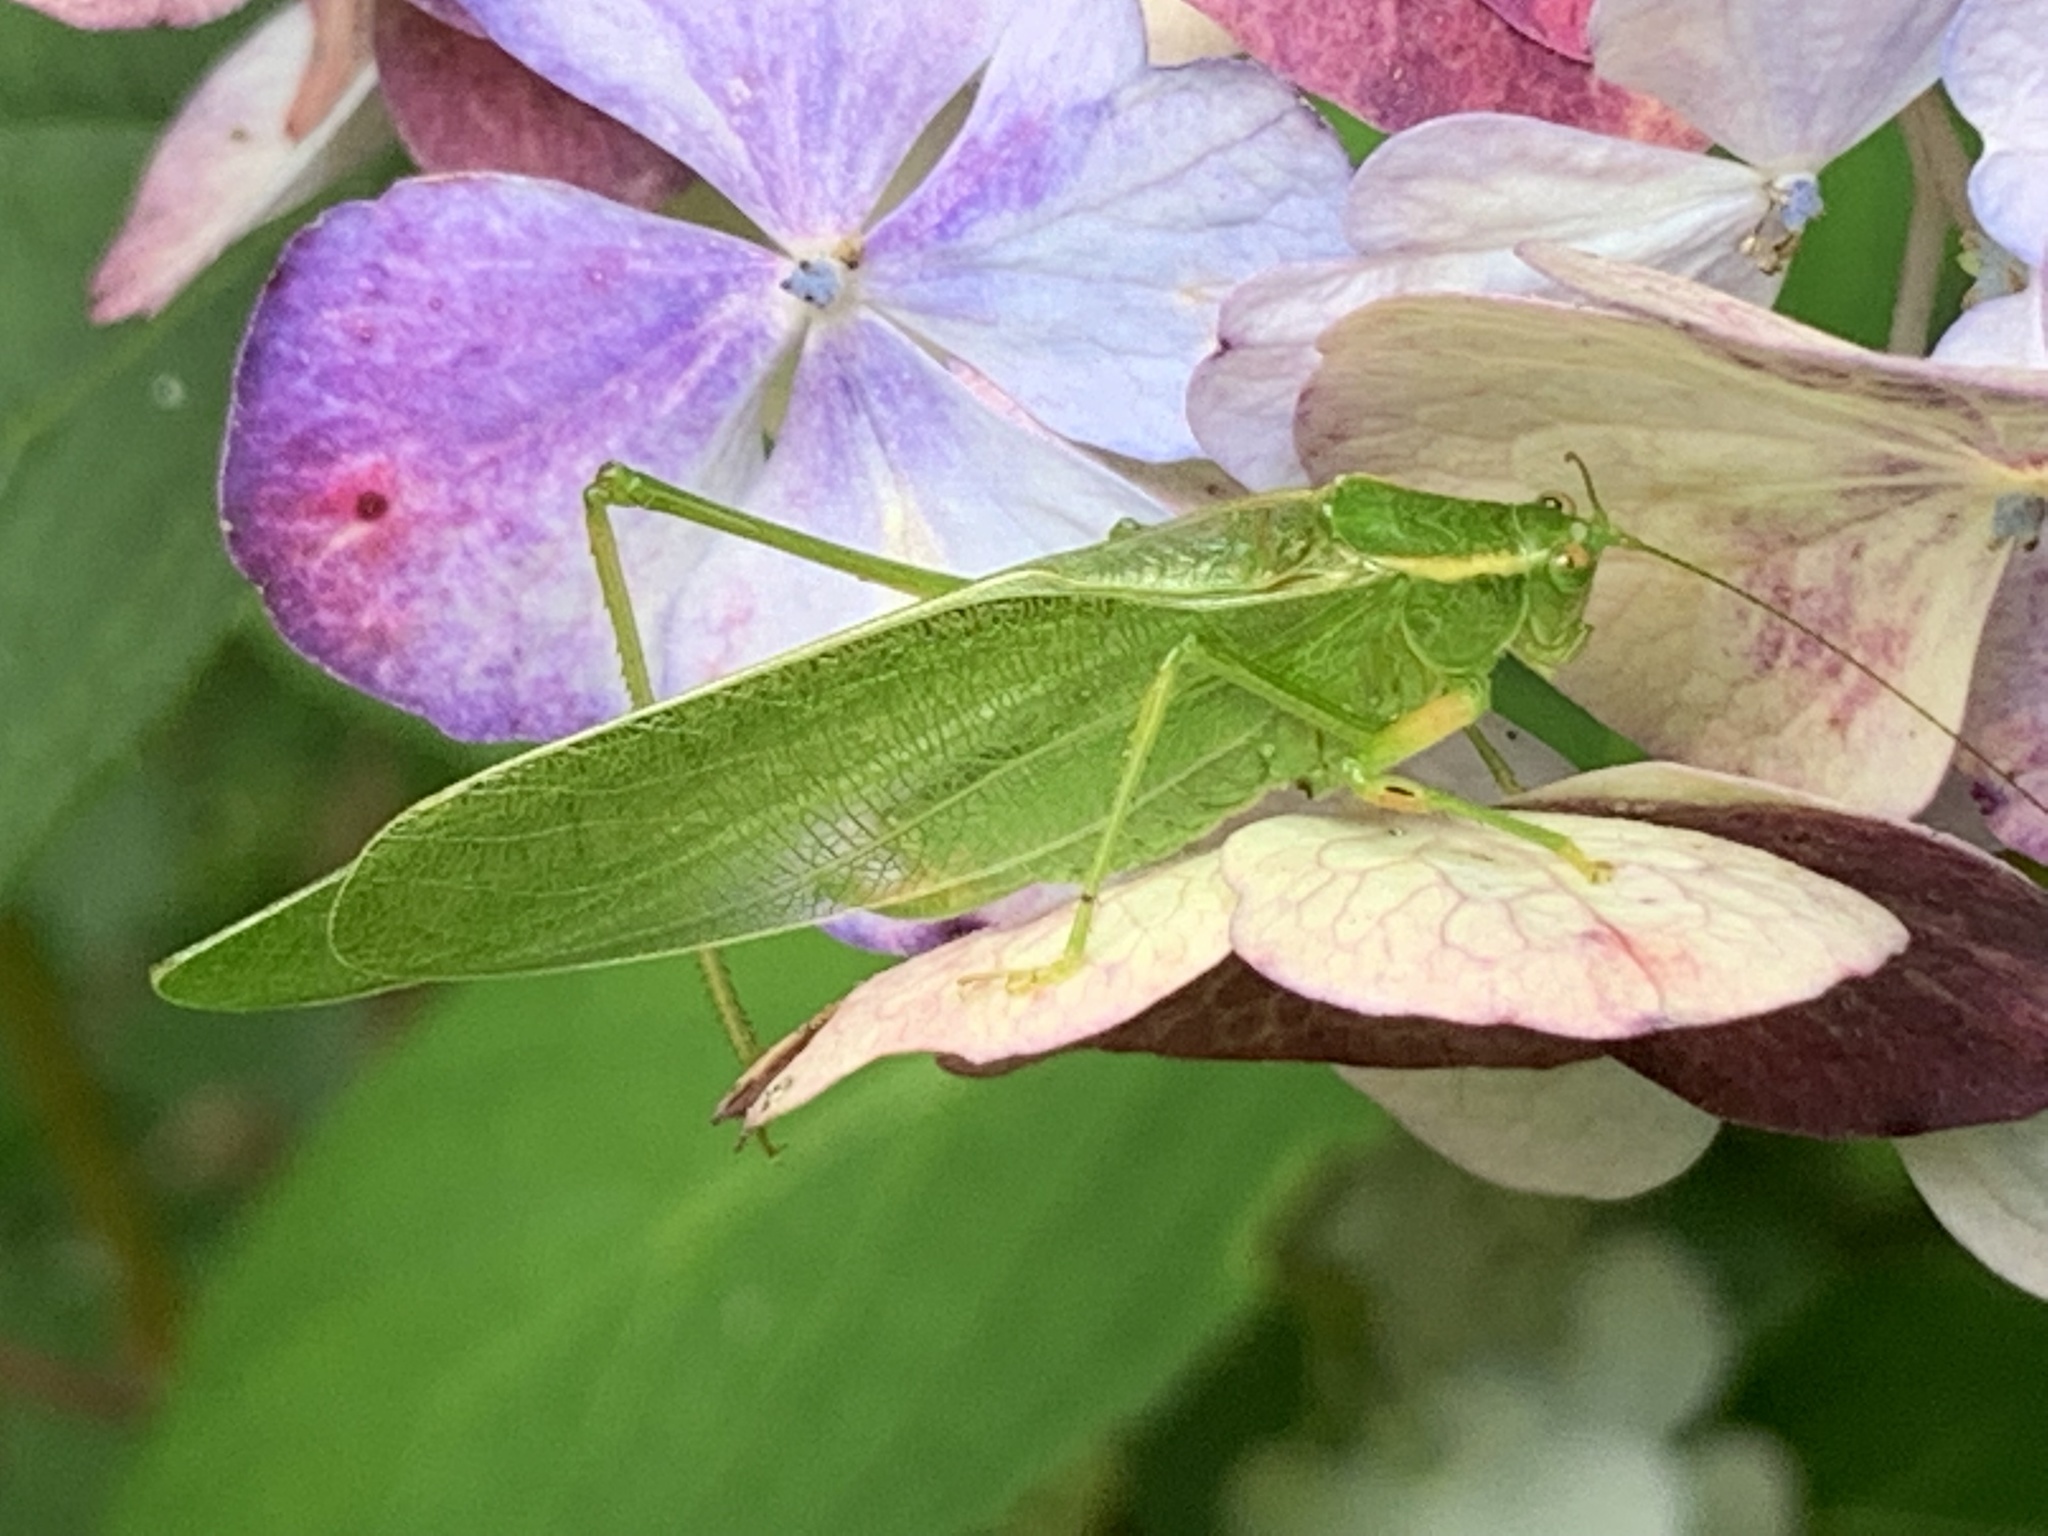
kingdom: Animalia
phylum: Arthropoda
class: Insecta
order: Orthoptera
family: Tettigoniidae
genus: Scudderia
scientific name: Scudderia septentrionalis
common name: Northern bush-katydid
